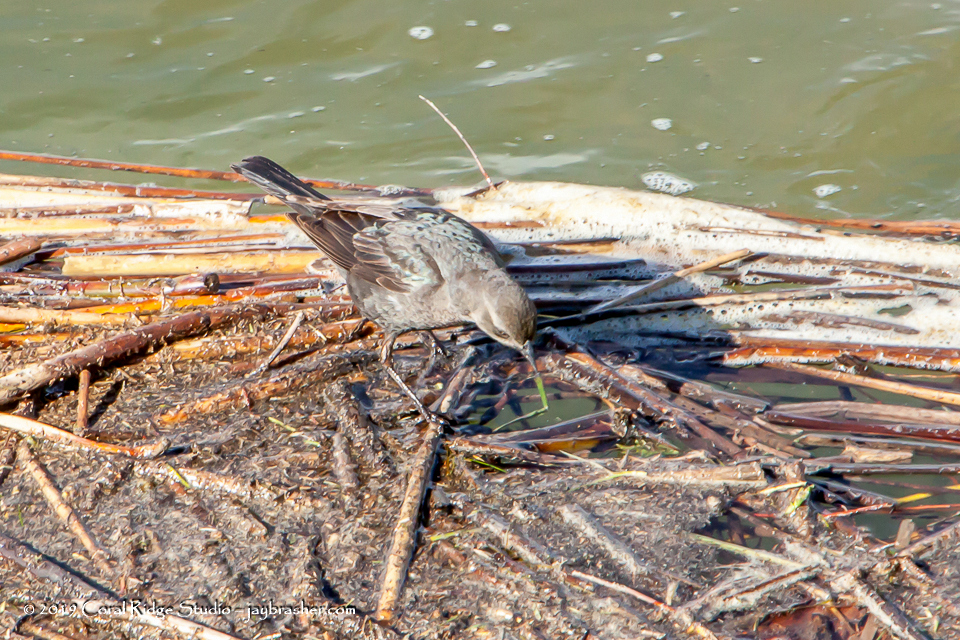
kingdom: Animalia
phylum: Chordata
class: Aves
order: Passeriformes
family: Icteridae
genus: Euphagus
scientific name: Euphagus cyanocephalus
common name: Brewer's blackbird
